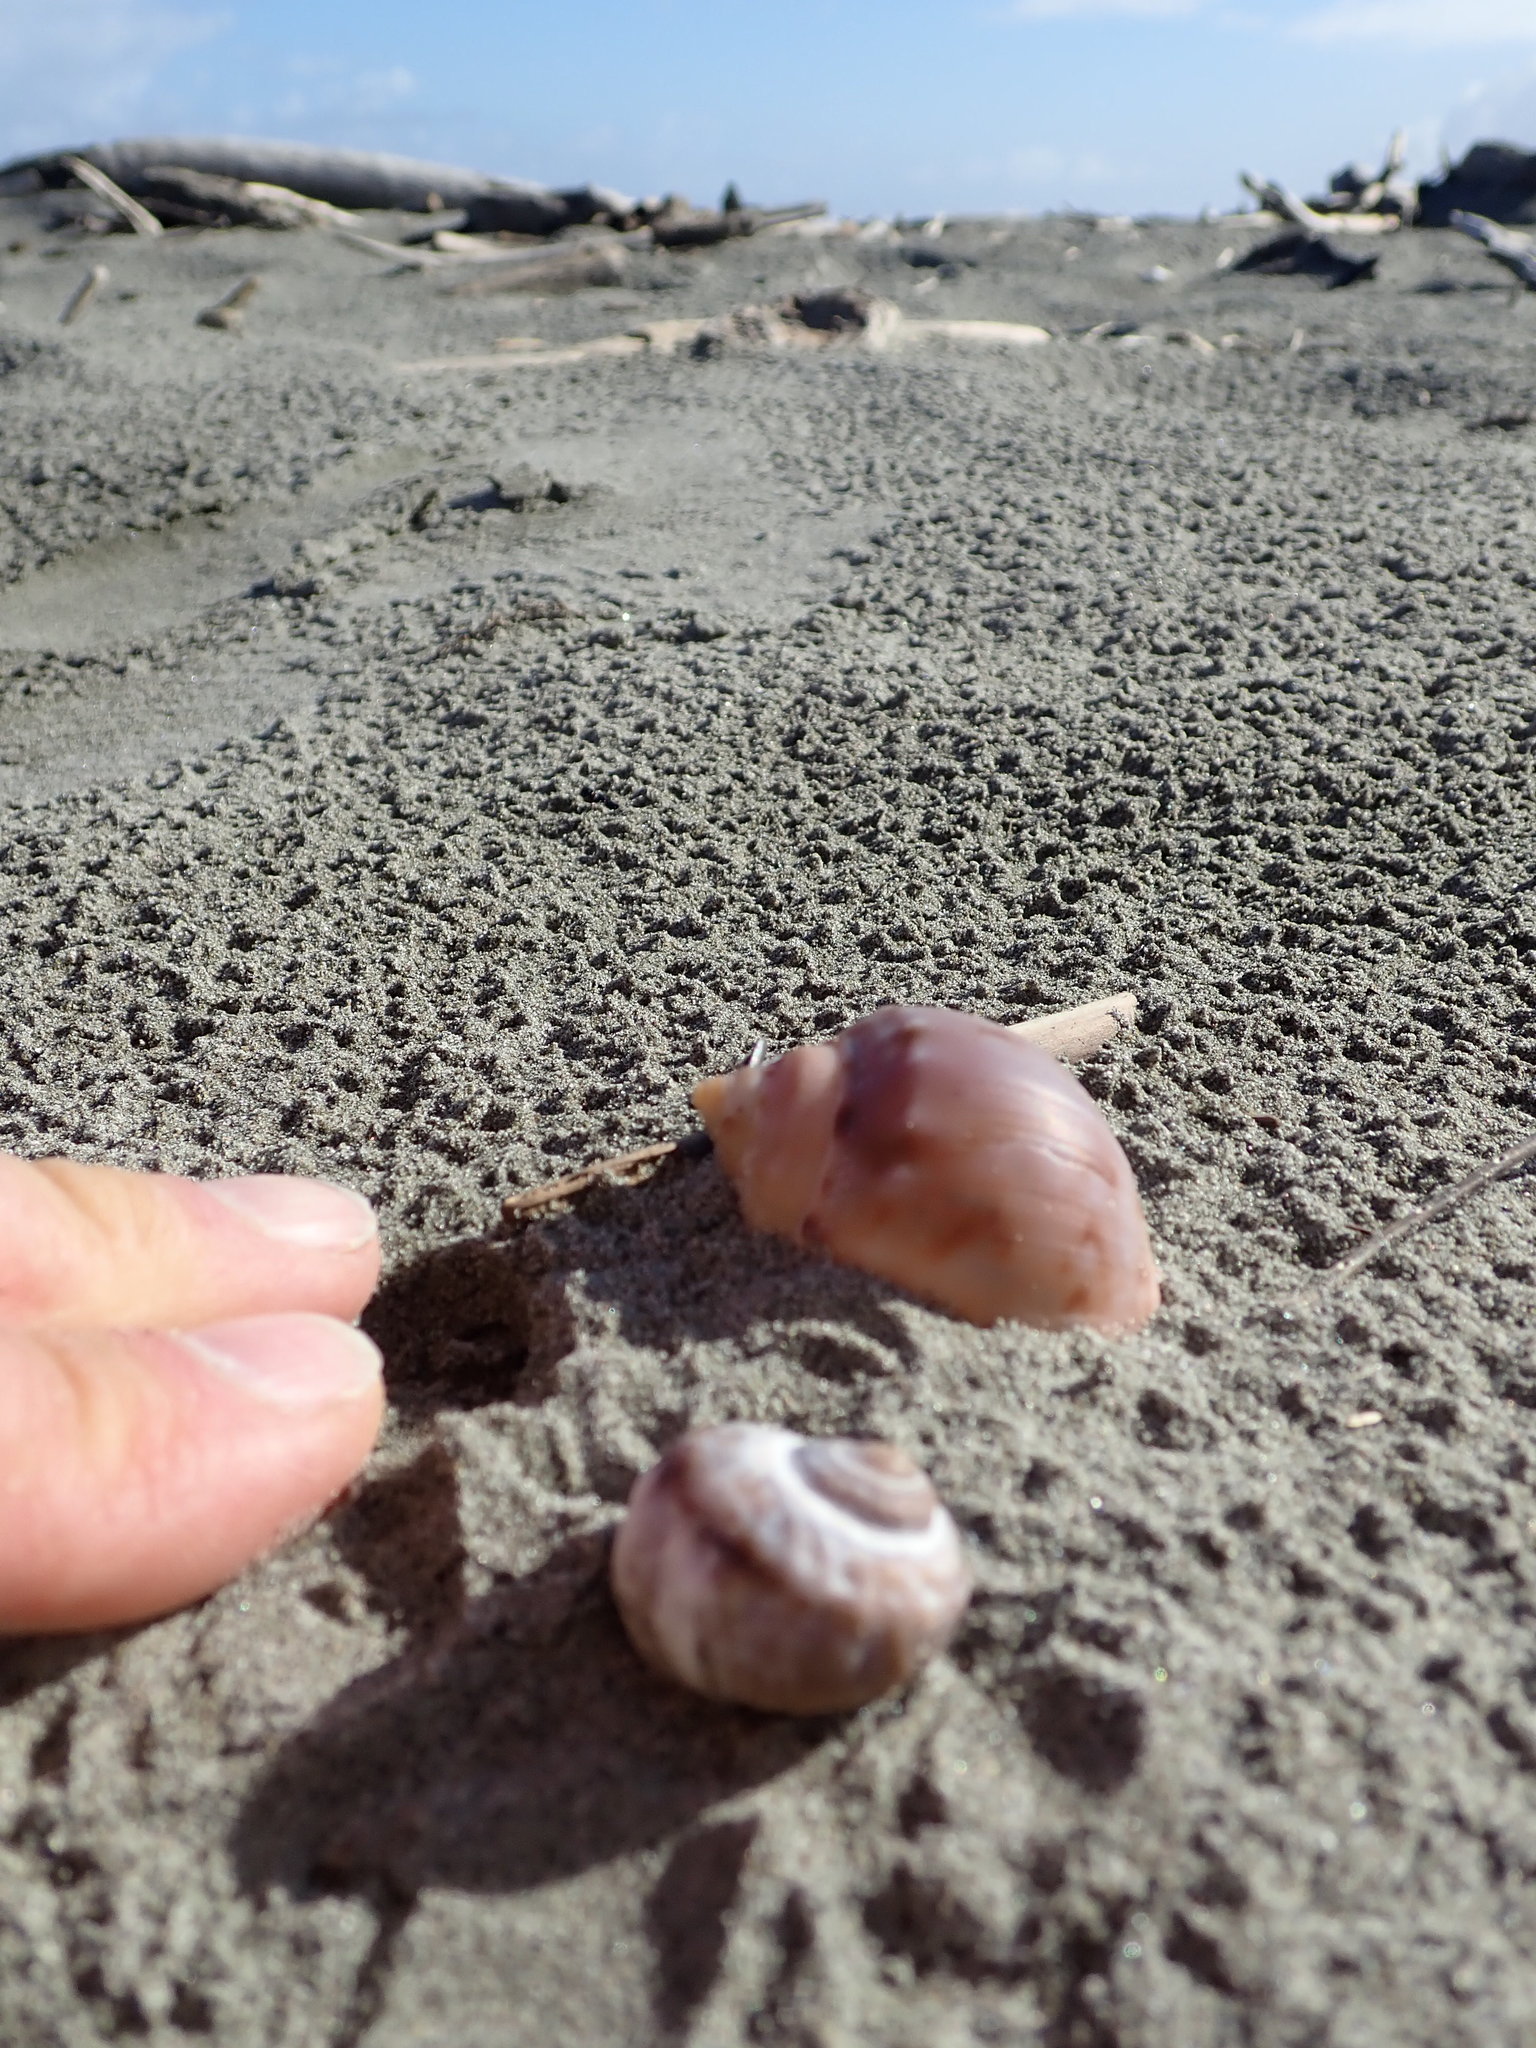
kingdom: Animalia
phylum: Mollusca
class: Gastropoda
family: Amphibolidae
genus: Amphibola
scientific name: Amphibola crenata
